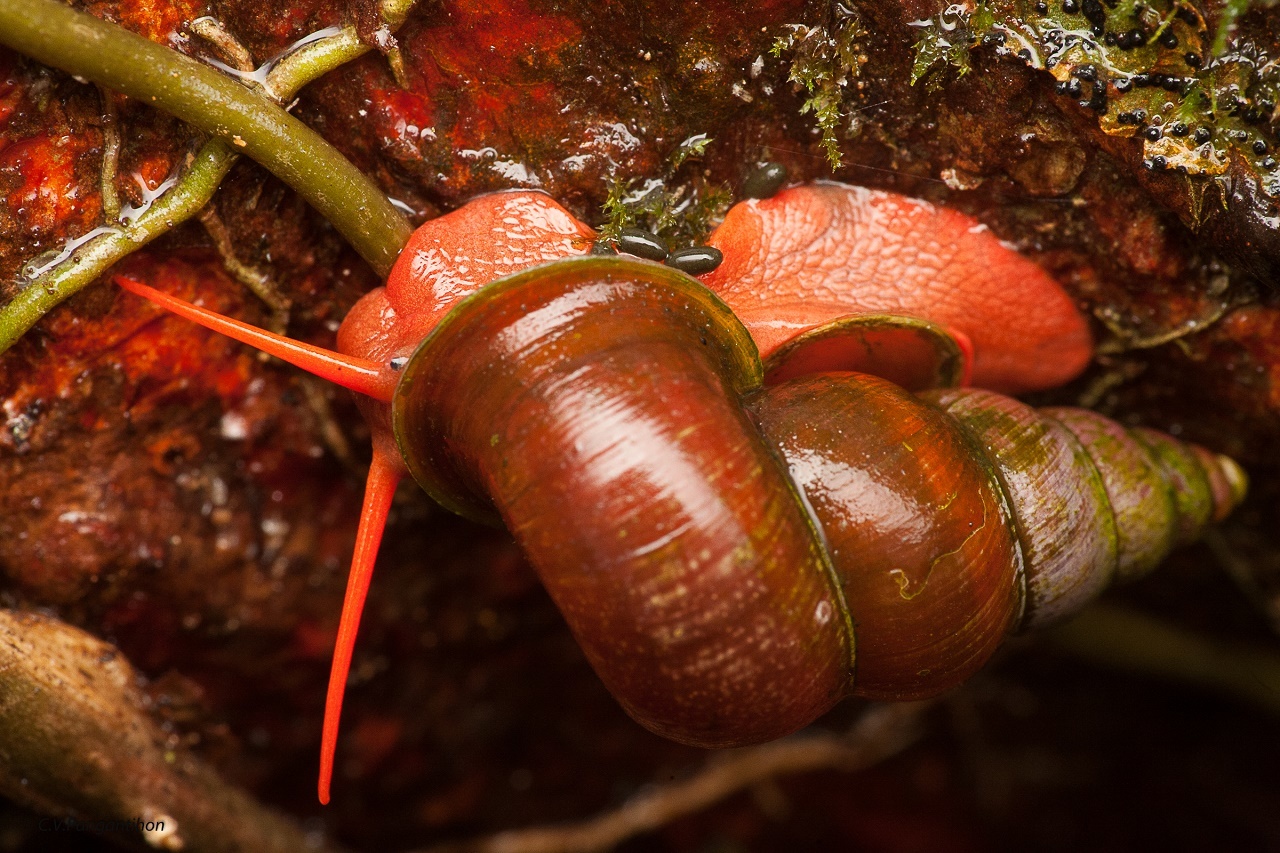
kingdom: Animalia
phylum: Mollusca
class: Gastropoda
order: Architaenioglossa
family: Pupinidae
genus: Coptocheilus
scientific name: Coptocheilus anostomus
